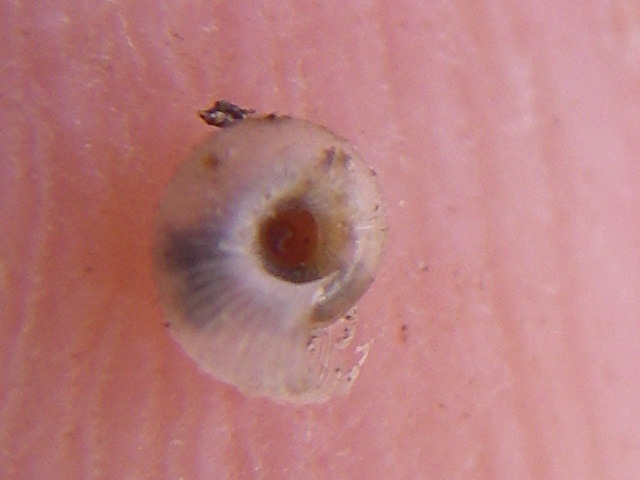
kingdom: Animalia
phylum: Mollusca
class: Gastropoda
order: Stylommatophora
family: Valloniidae
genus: Vallonia
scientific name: Vallonia costata
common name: Ribbed grass snail
